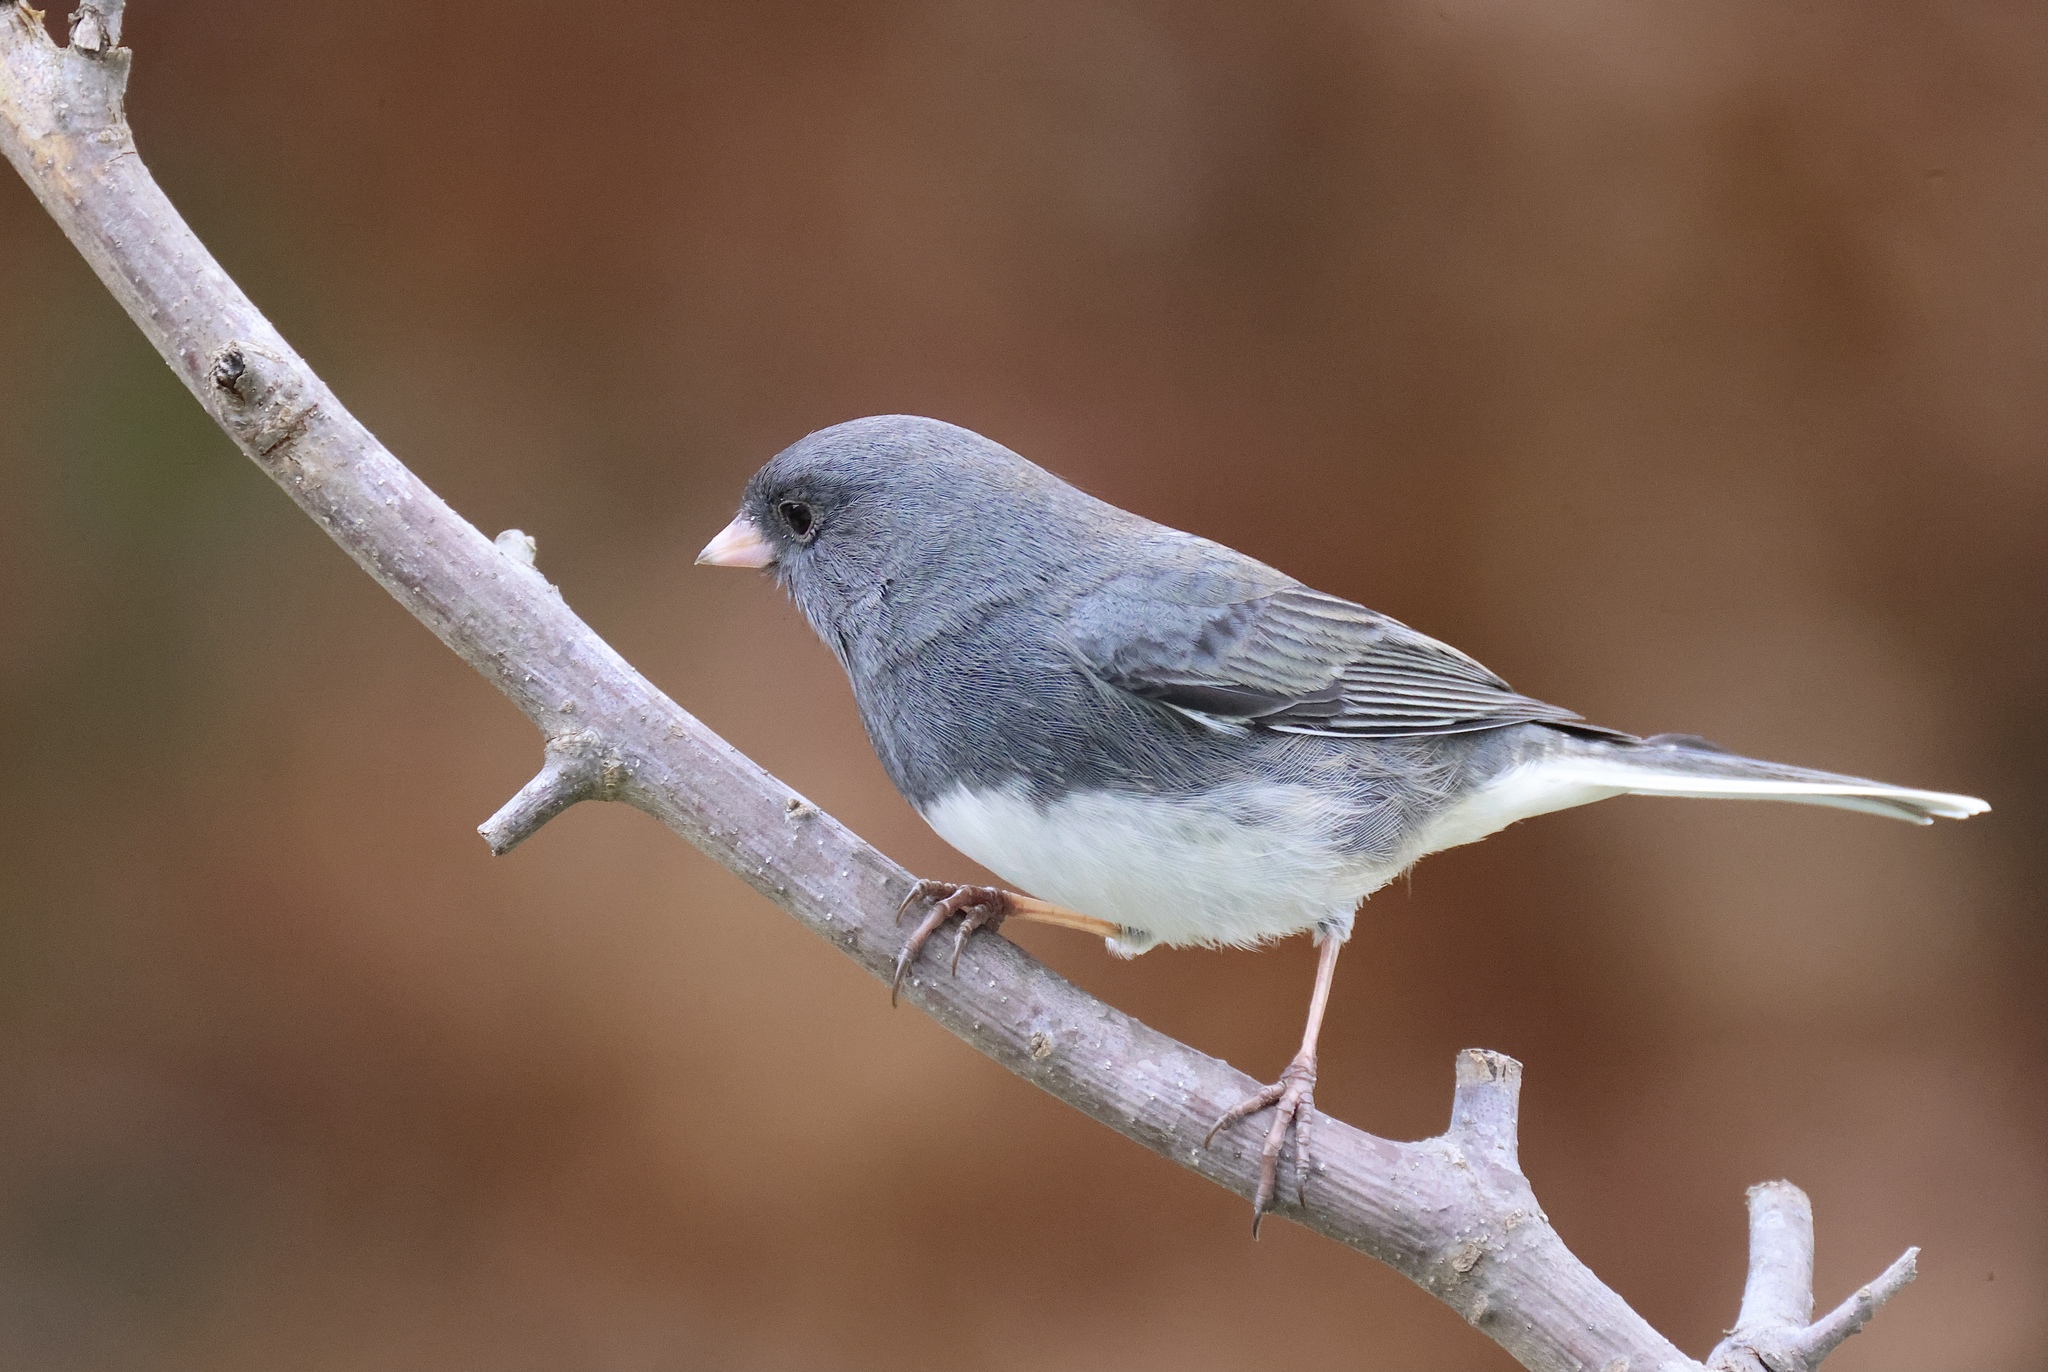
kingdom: Animalia
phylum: Chordata
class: Aves
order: Passeriformes
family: Passerellidae
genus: Junco
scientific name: Junco hyemalis
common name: Dark-eyed junco
